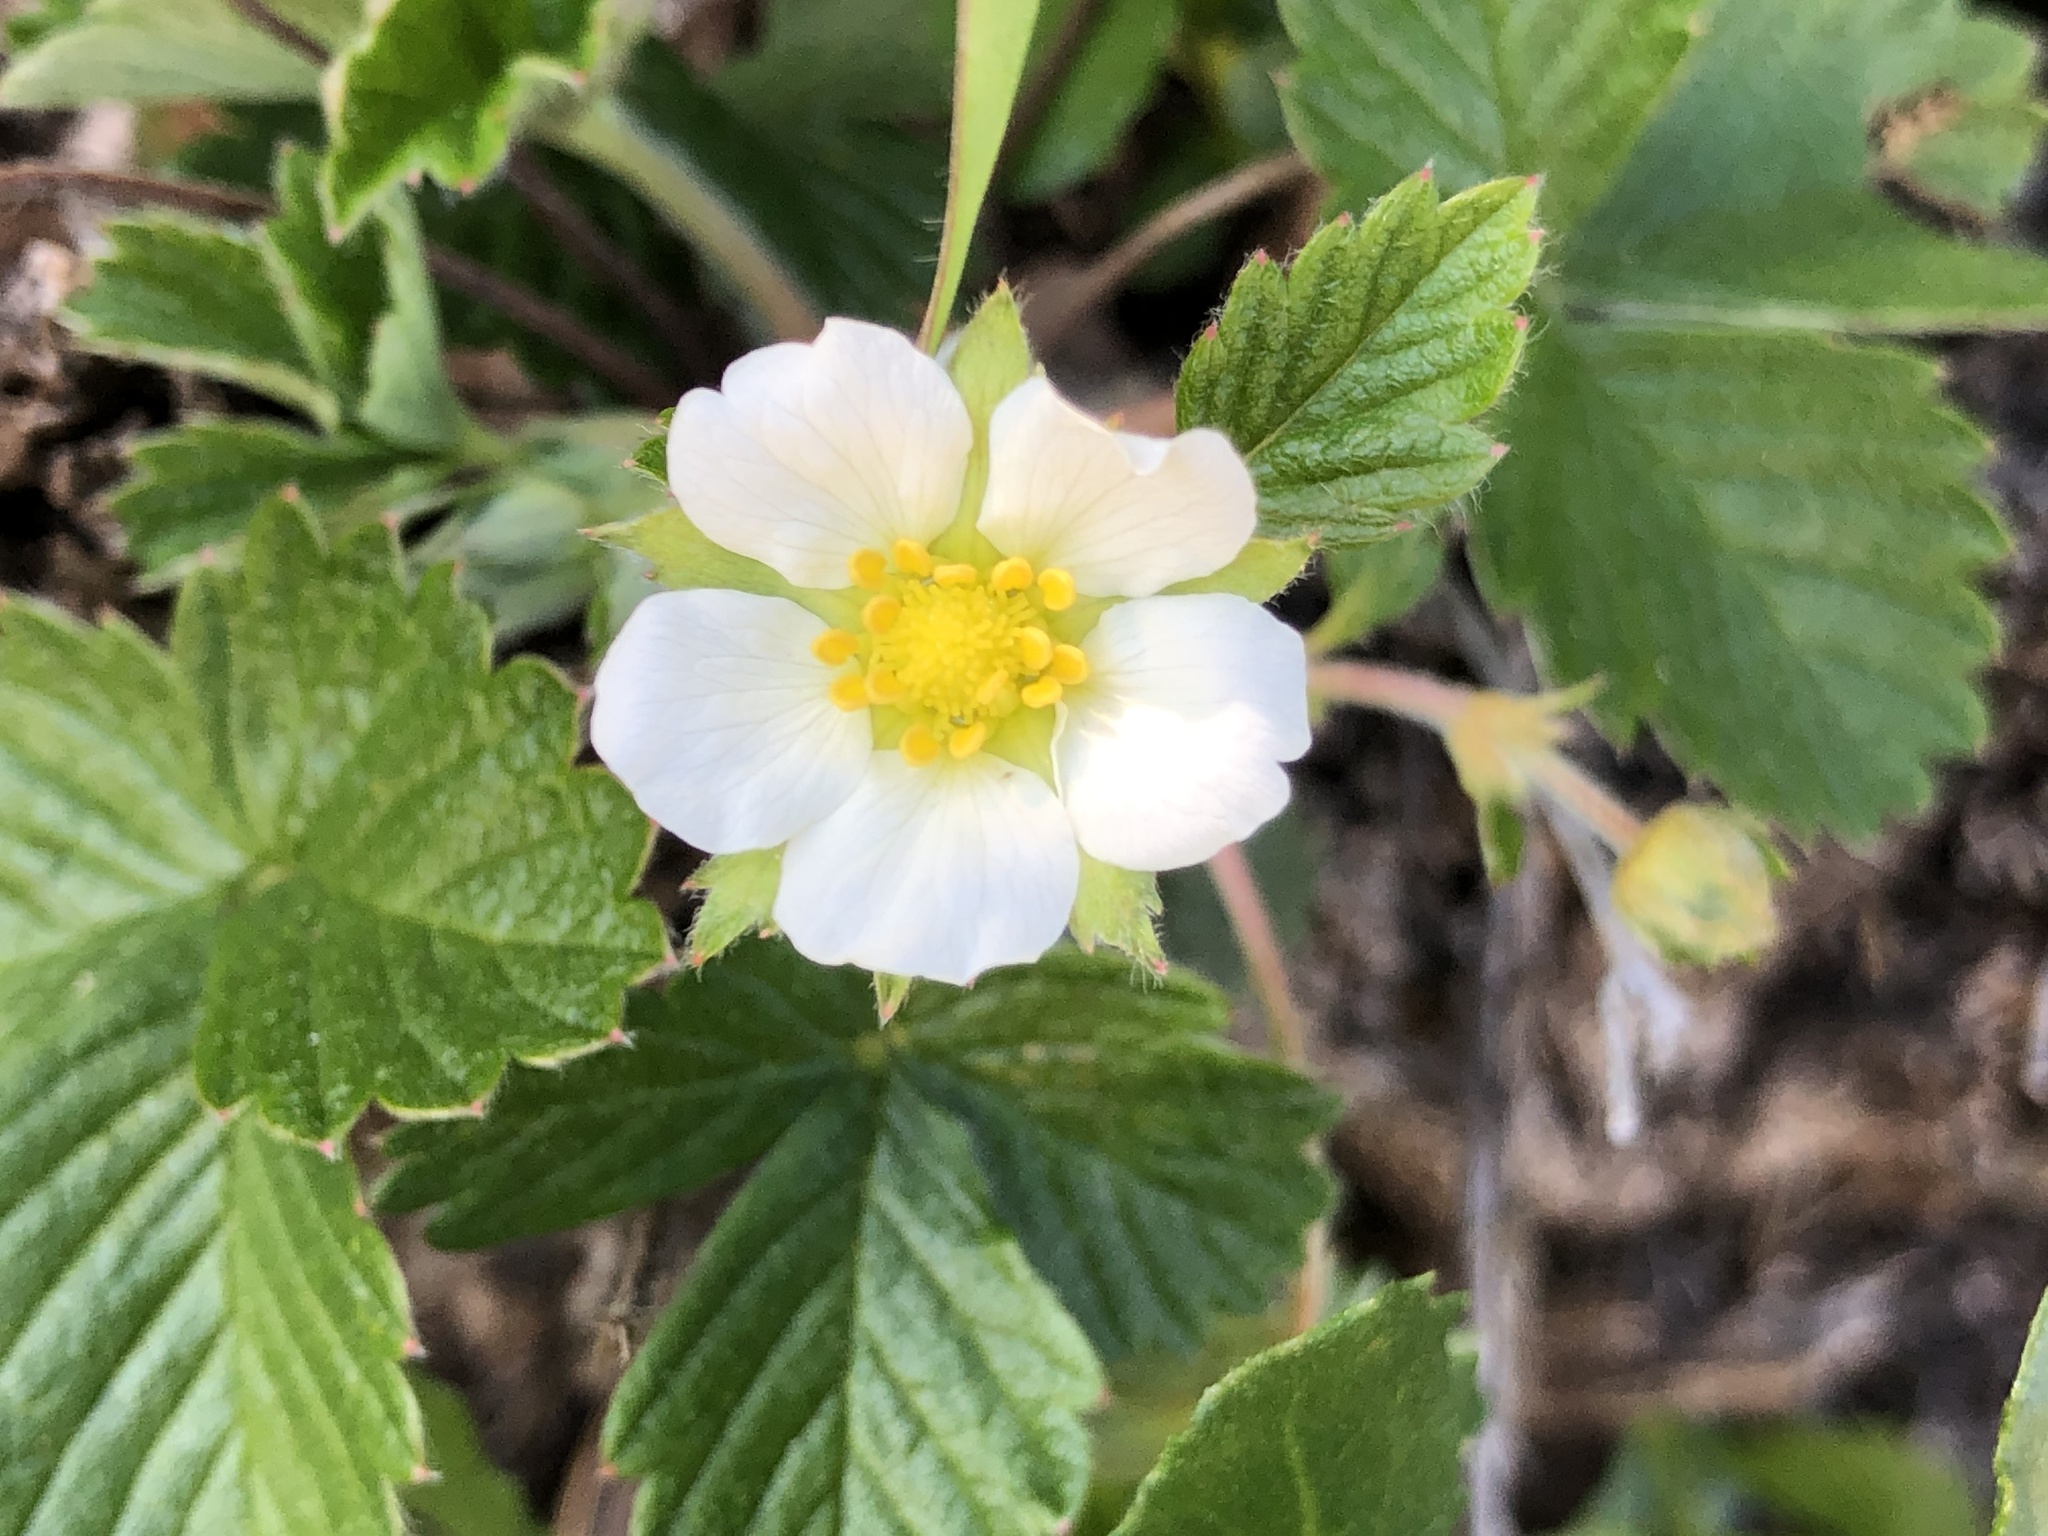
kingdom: Plantae
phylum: Tracheophyta
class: Magnoliopsida
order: Rosales
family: Rosaceae
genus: Fragaria
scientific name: Fragaria vesca
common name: Wild strawberry
